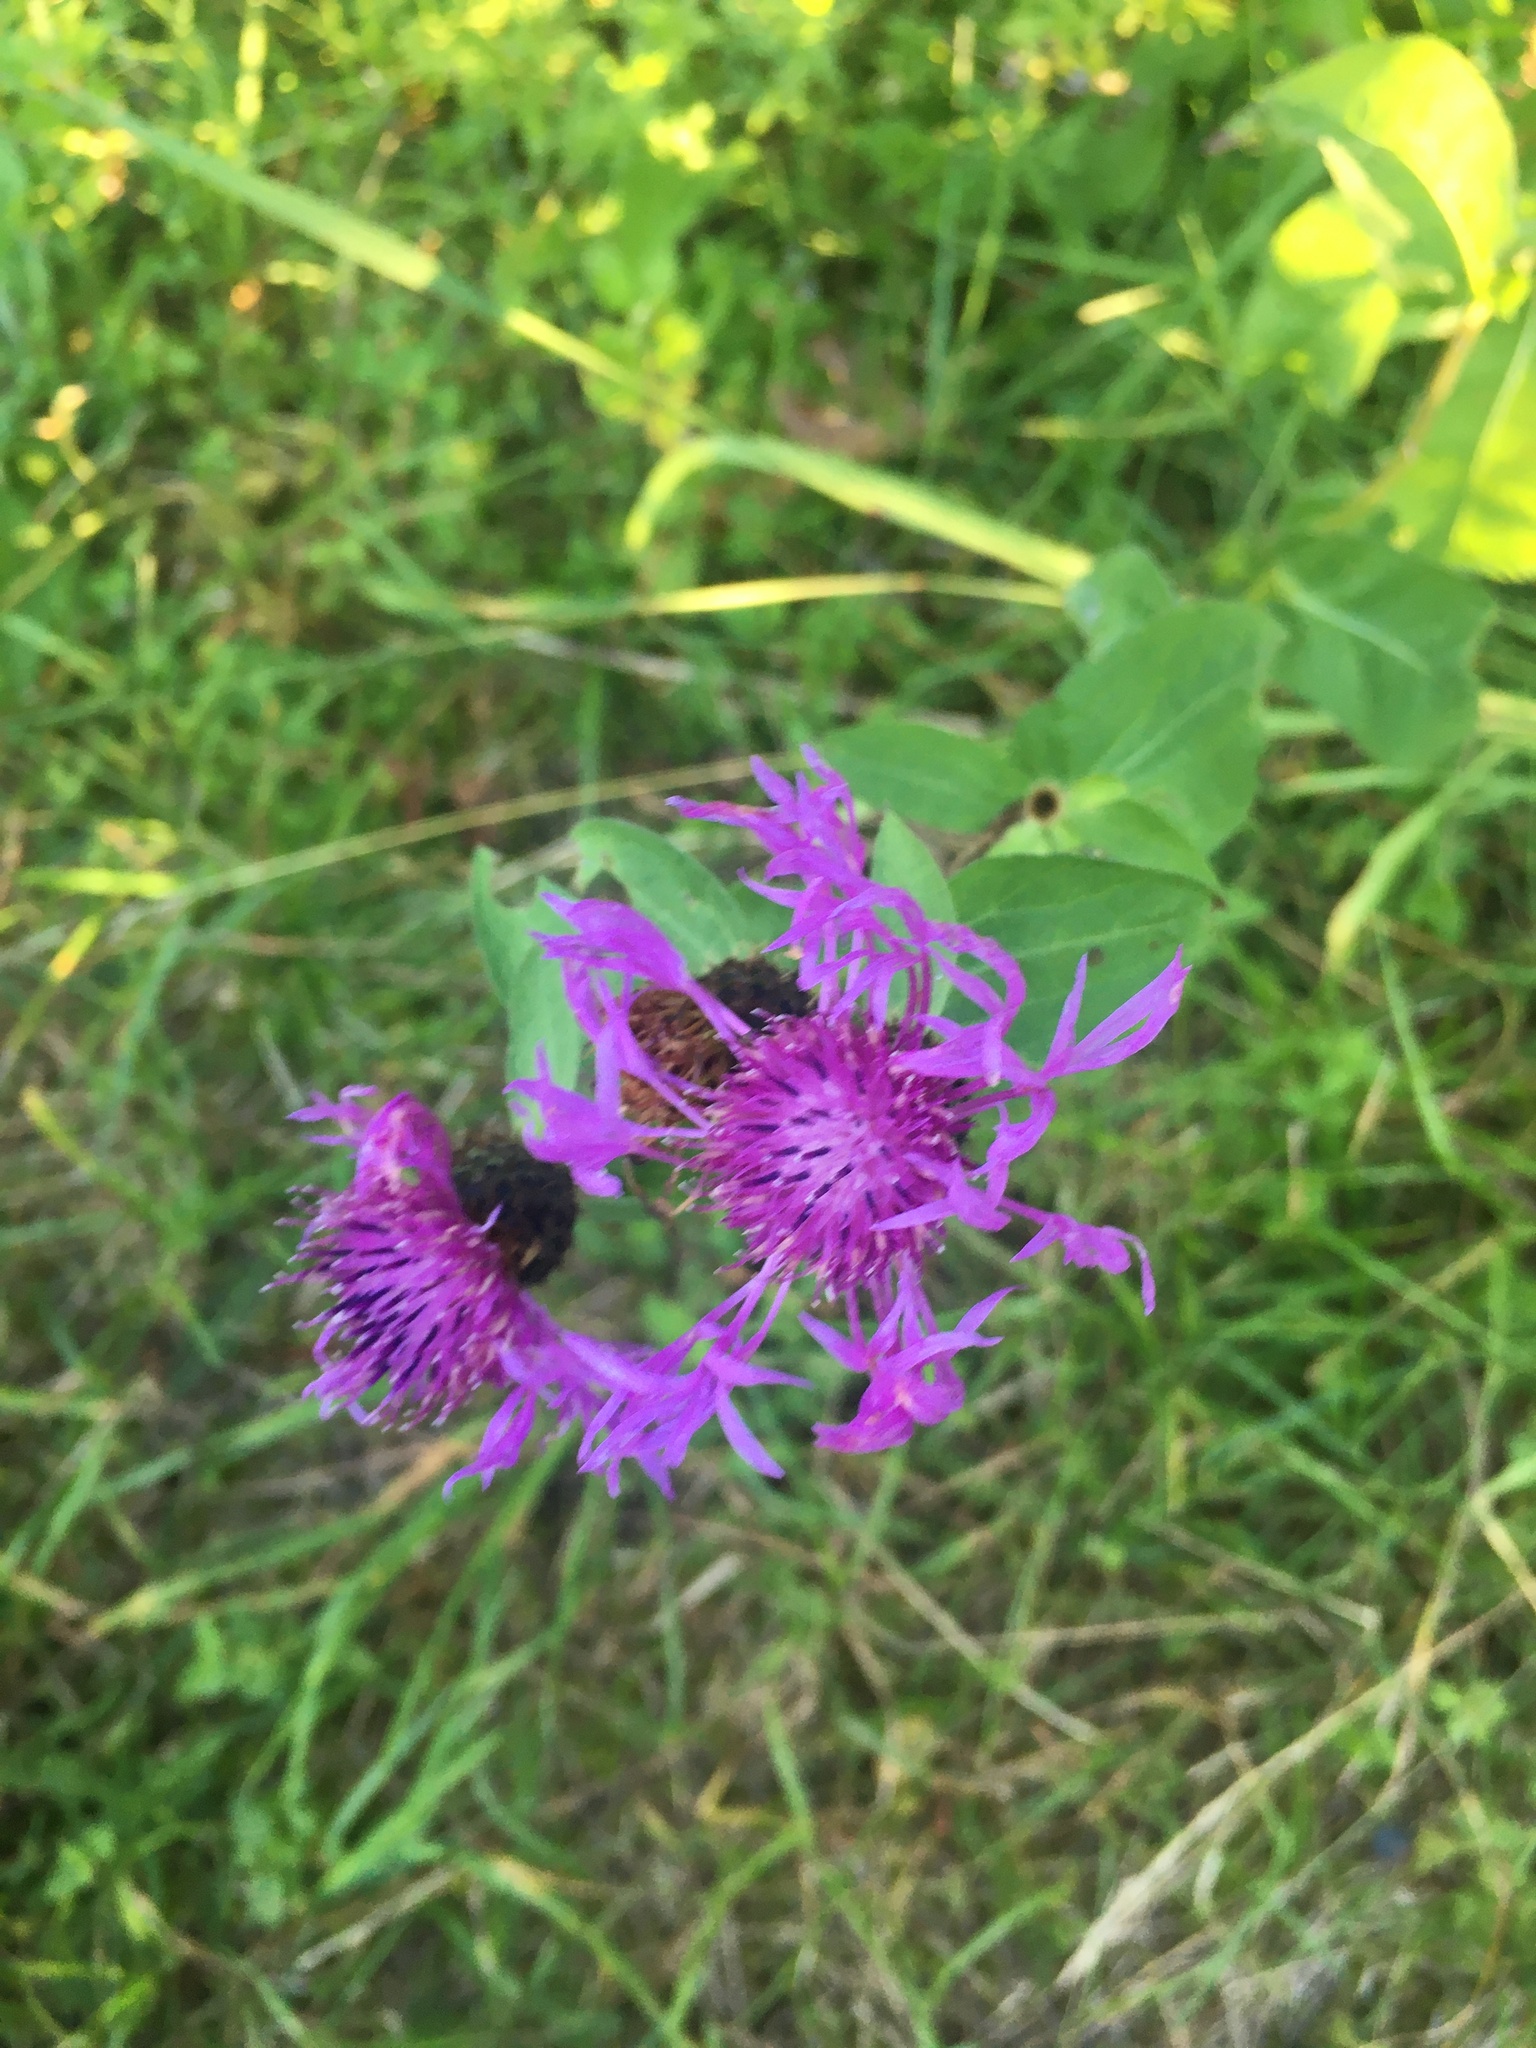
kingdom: Plantae
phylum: Tracheophyta
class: Magnoliopsida
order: Asterales
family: Asteraceae
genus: Centaurea
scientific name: Centaurea phrygia
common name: Wig knapweed
